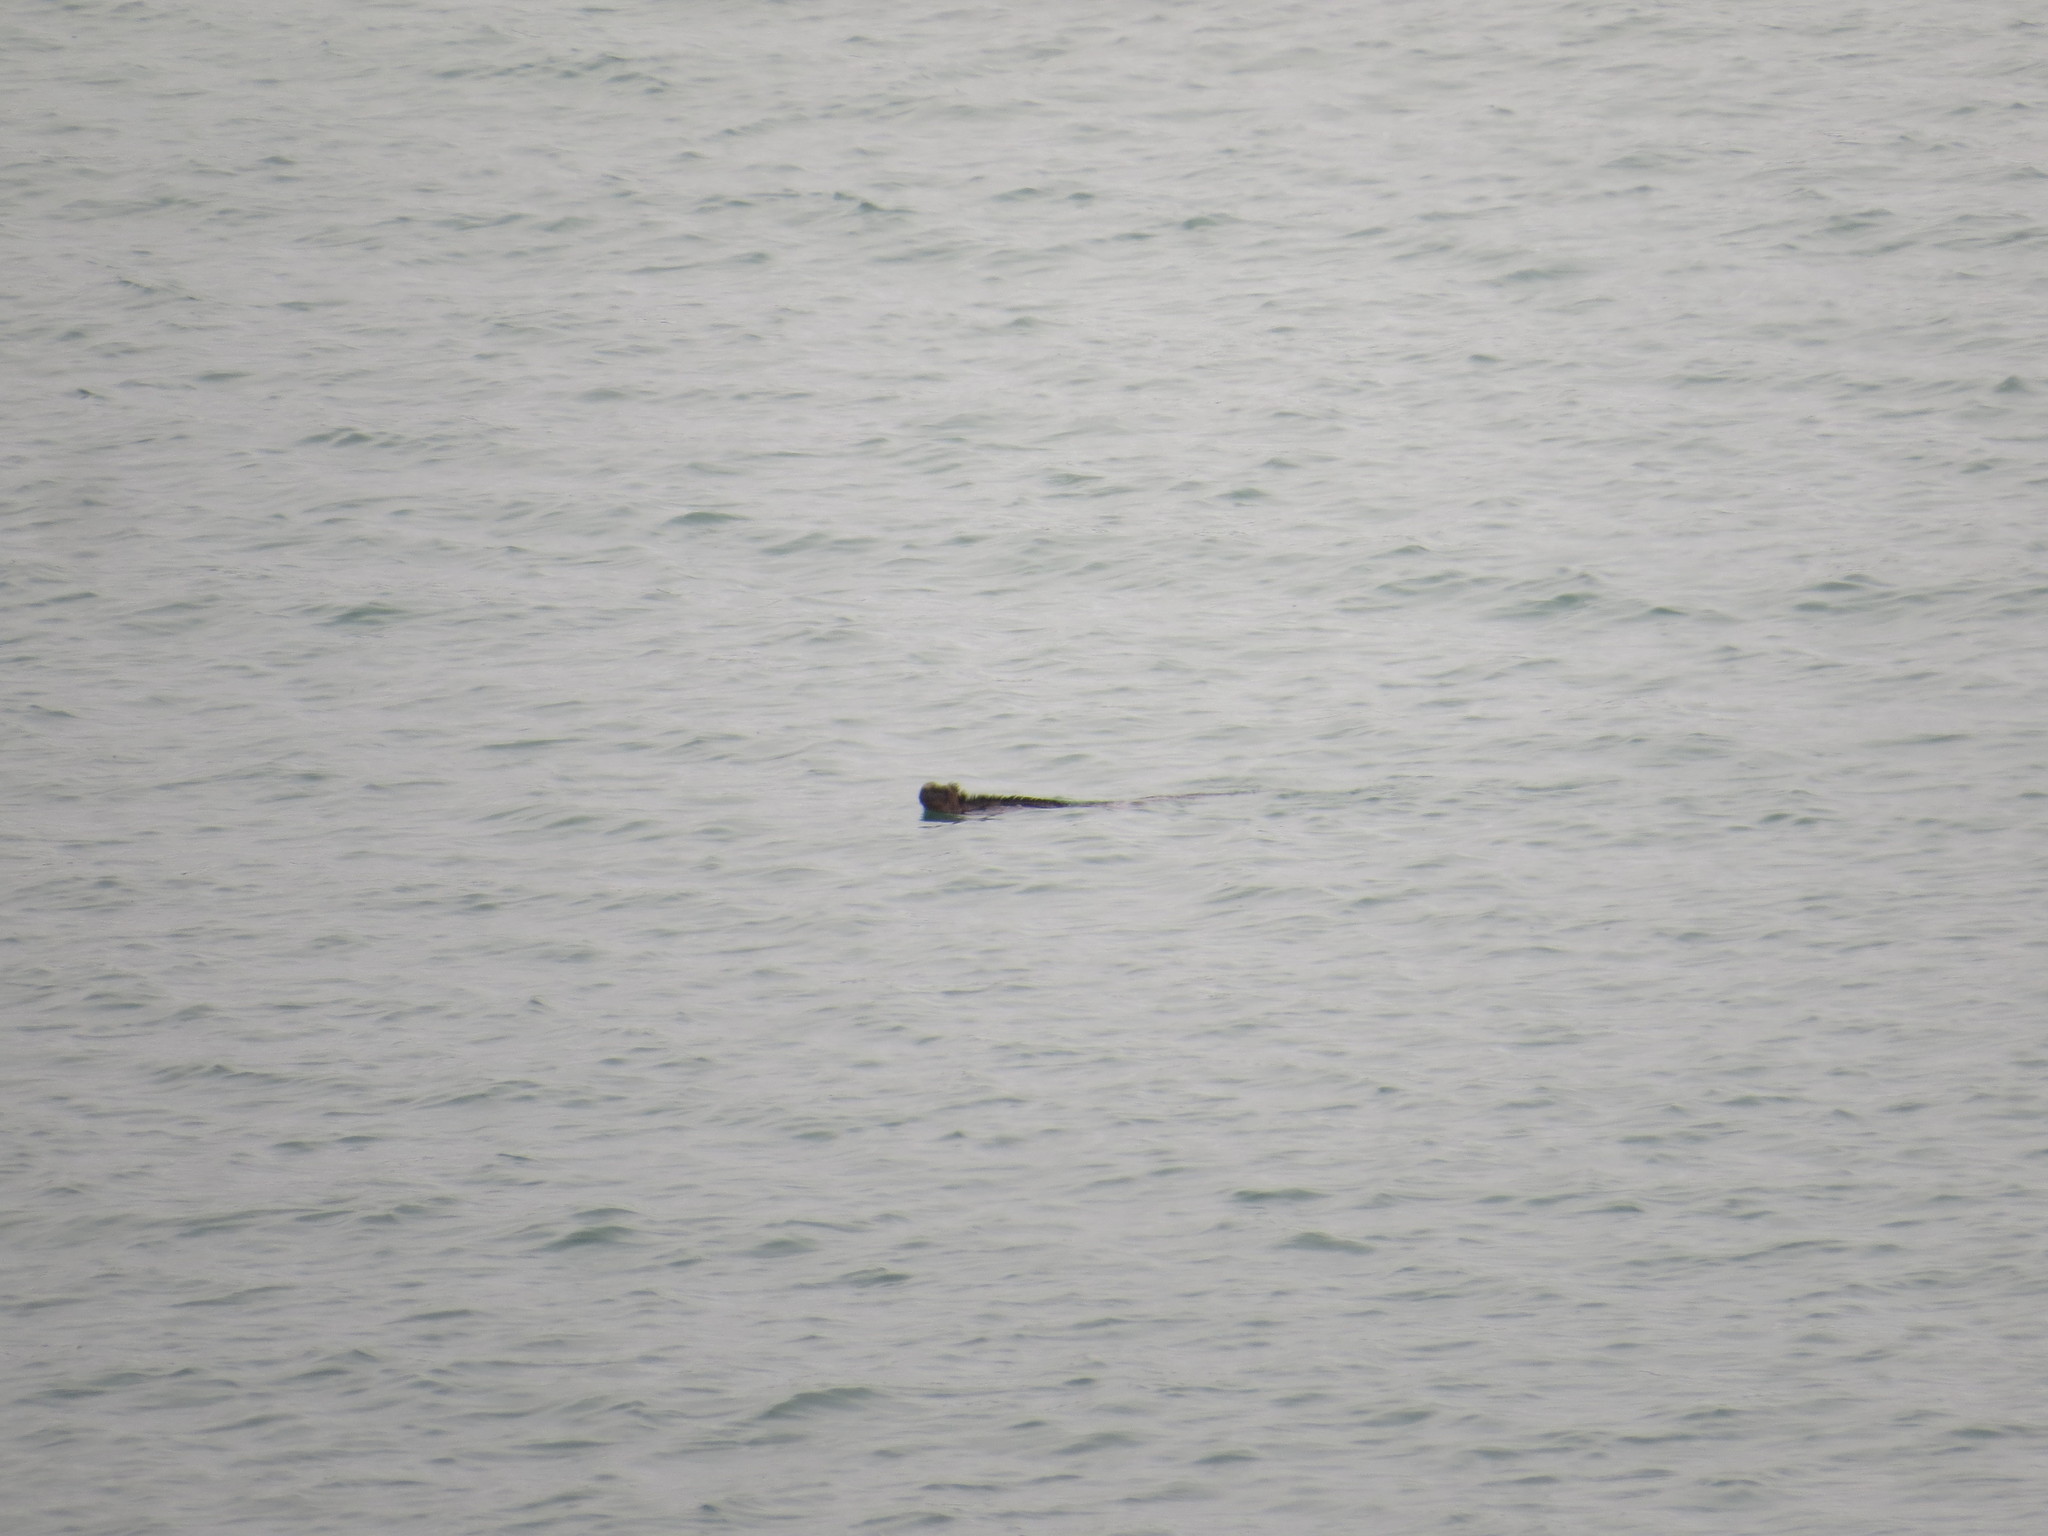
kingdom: Animalia
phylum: Chordata
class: Squamata
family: Iguanidae
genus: Amblyrhynchus
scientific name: Amblyrhynchus cristatus
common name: Marine iguana
